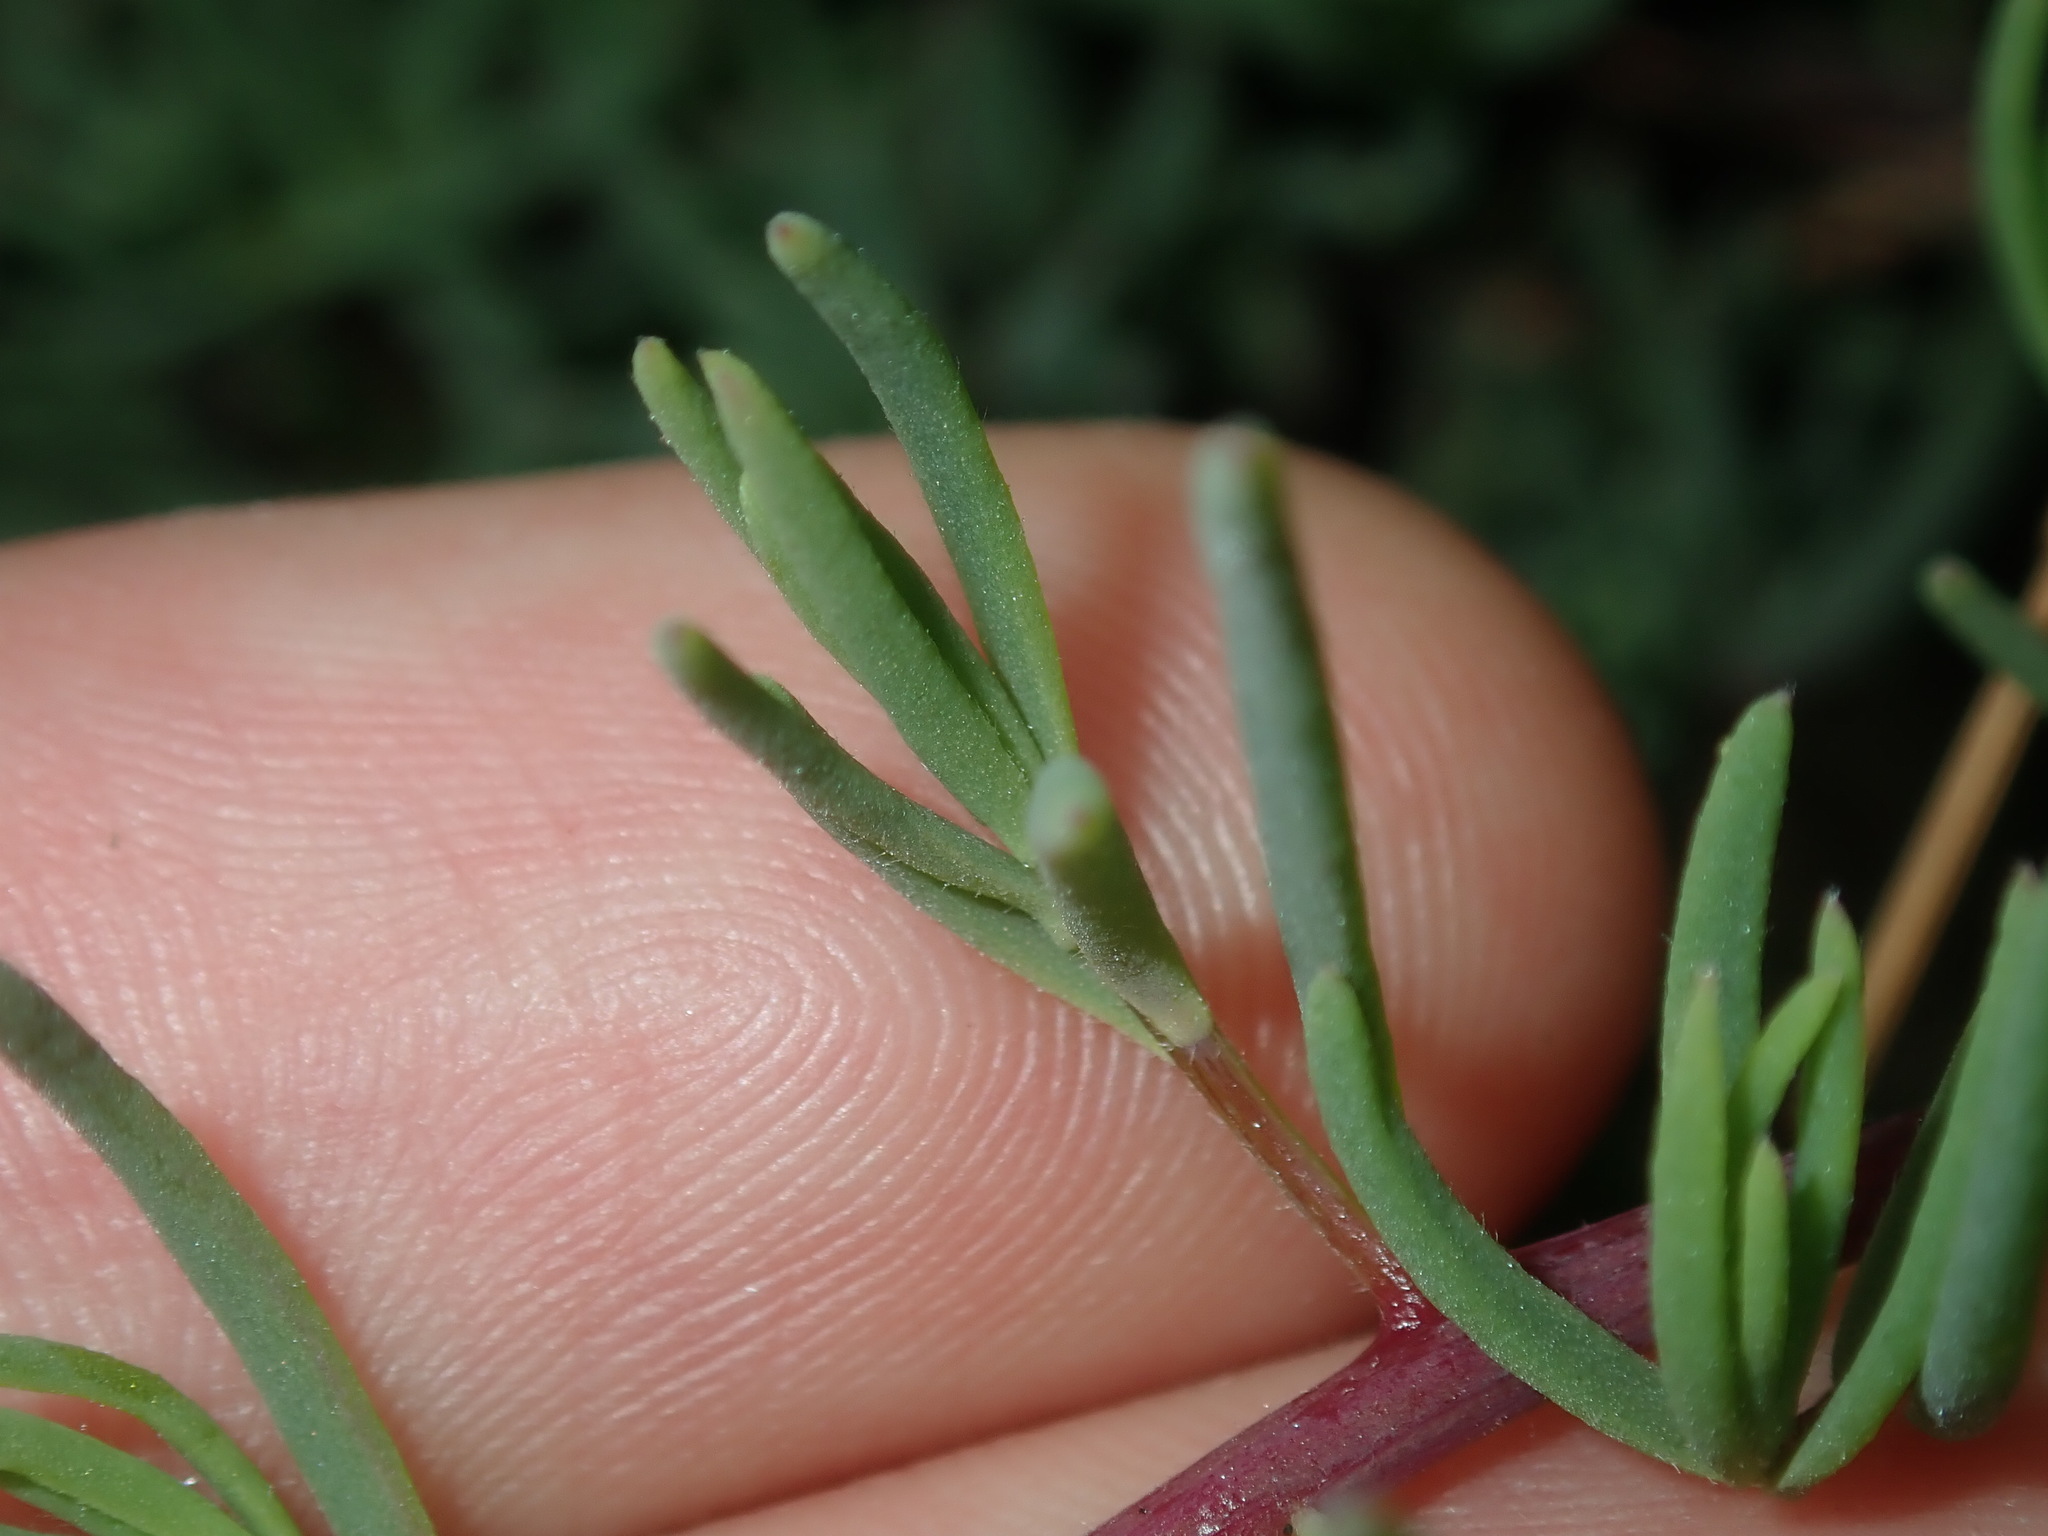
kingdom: Plantae
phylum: Tracheophyta
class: Magnoliopsida
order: Caryophyllales
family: Amaranthaceae
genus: Suaeda
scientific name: Suaeda australis
